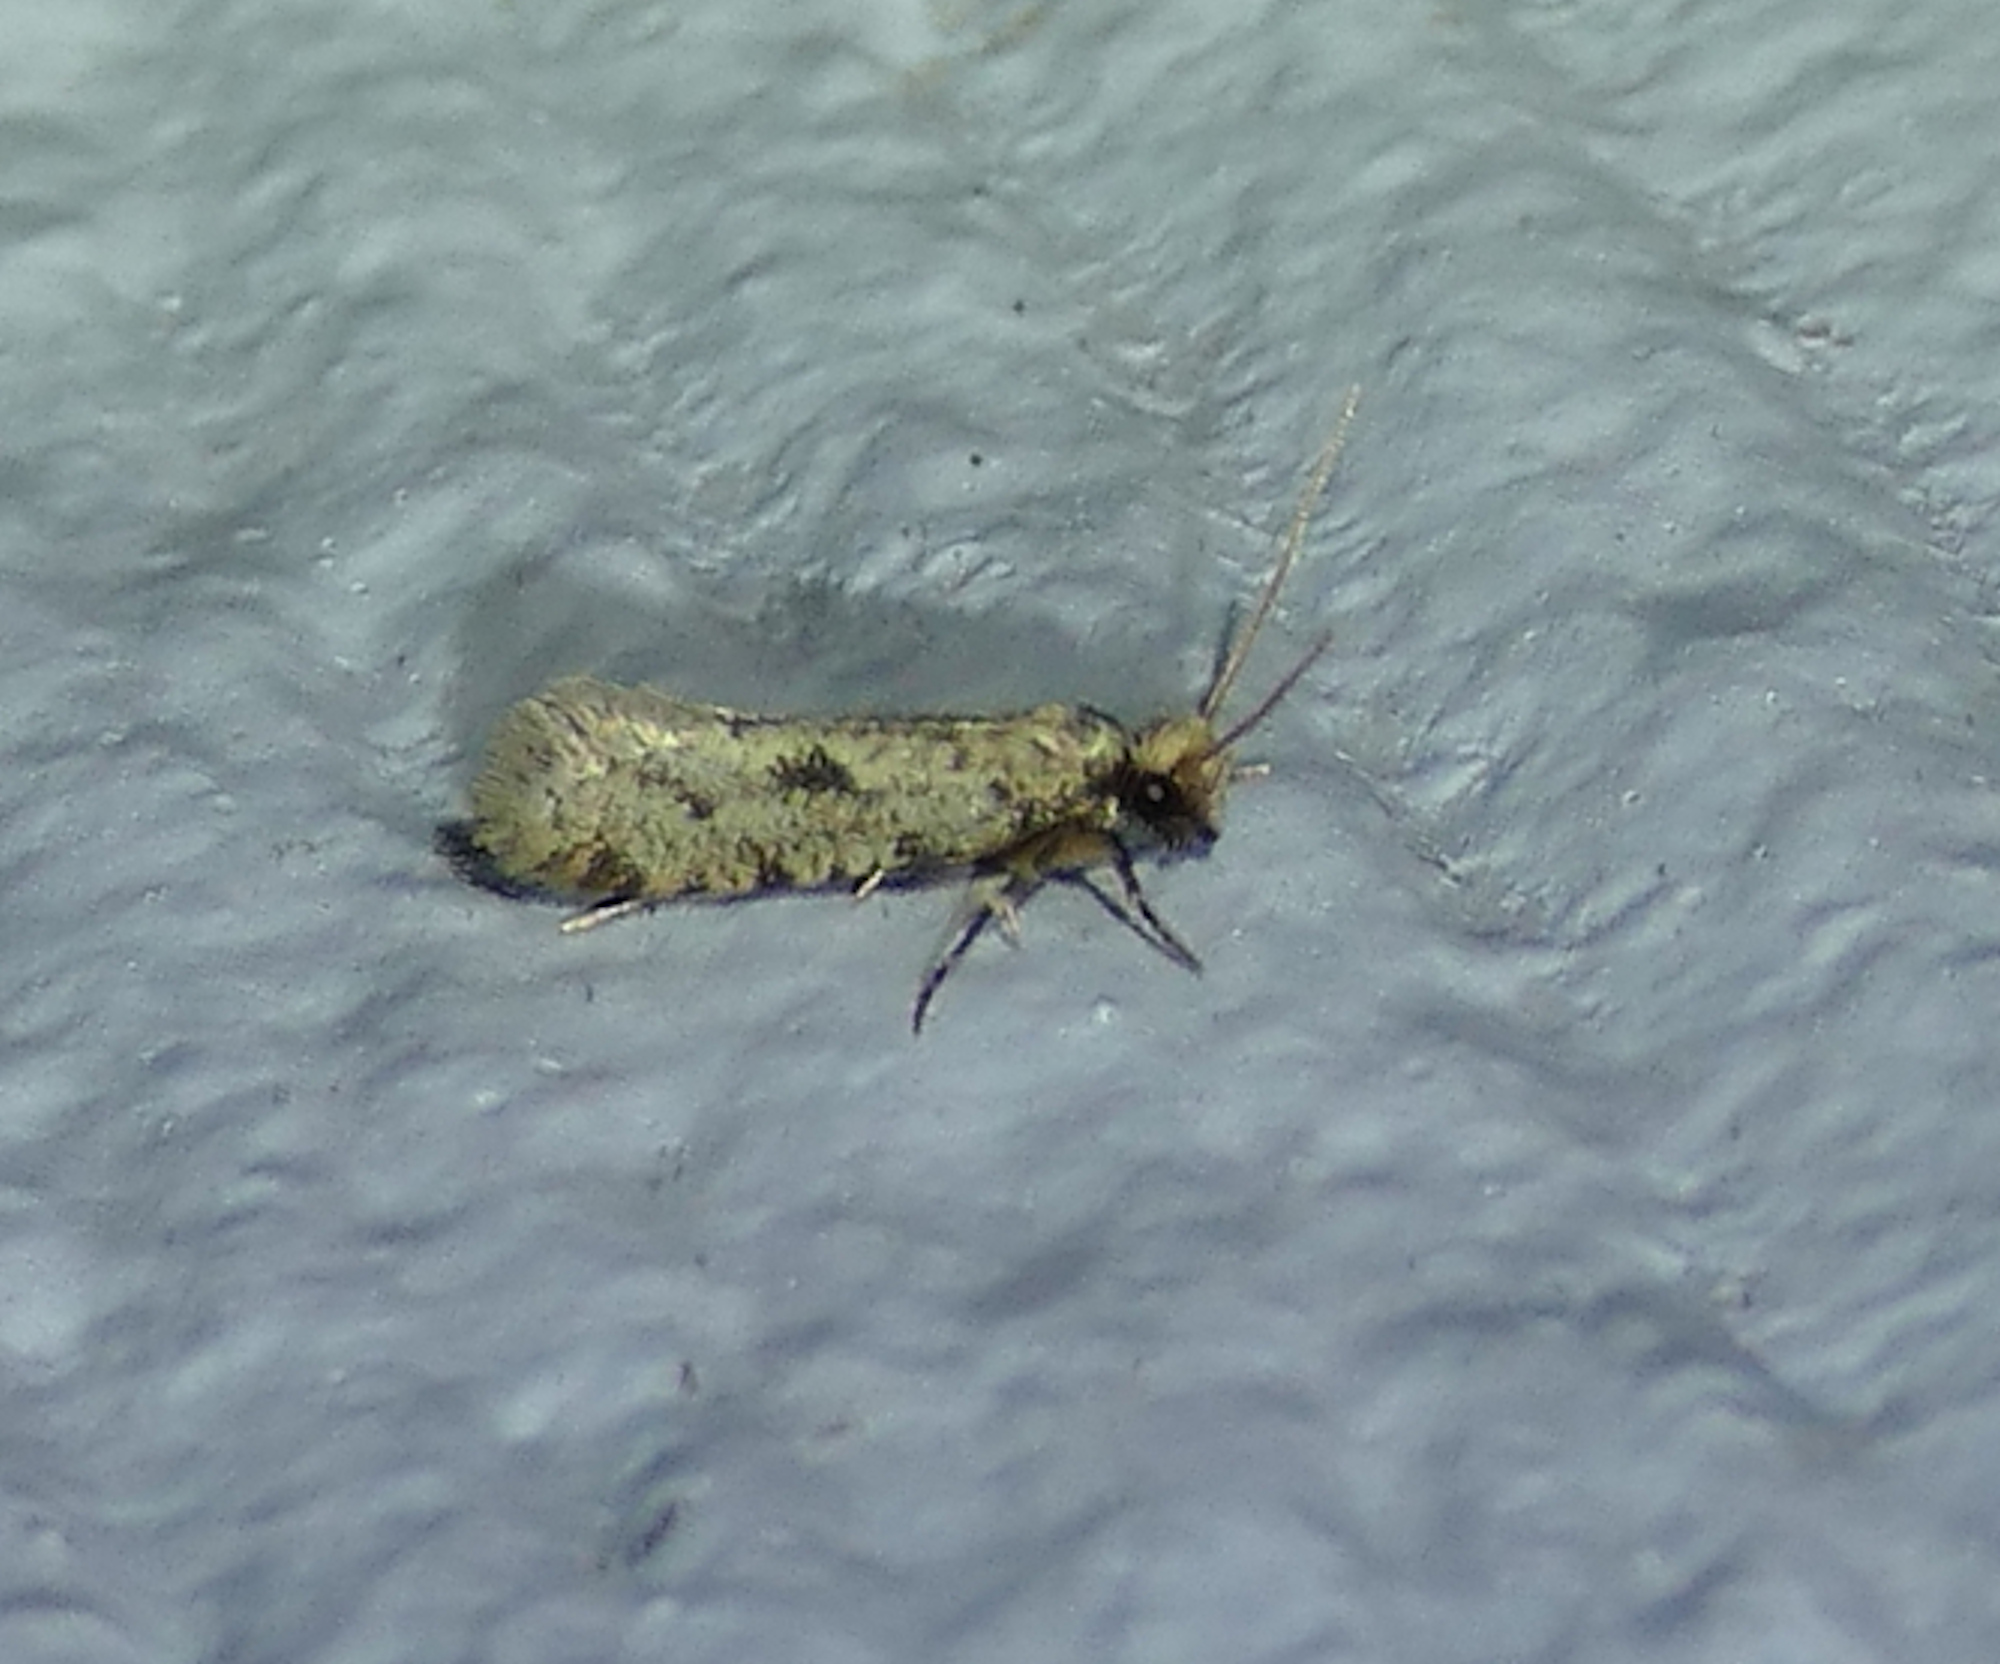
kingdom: Animalia
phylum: Arthropoda
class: Insecta
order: Lepidoptera
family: Tineidae
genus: Amydria
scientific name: Amydria effrentella
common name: Brown-blotched amydria moth
